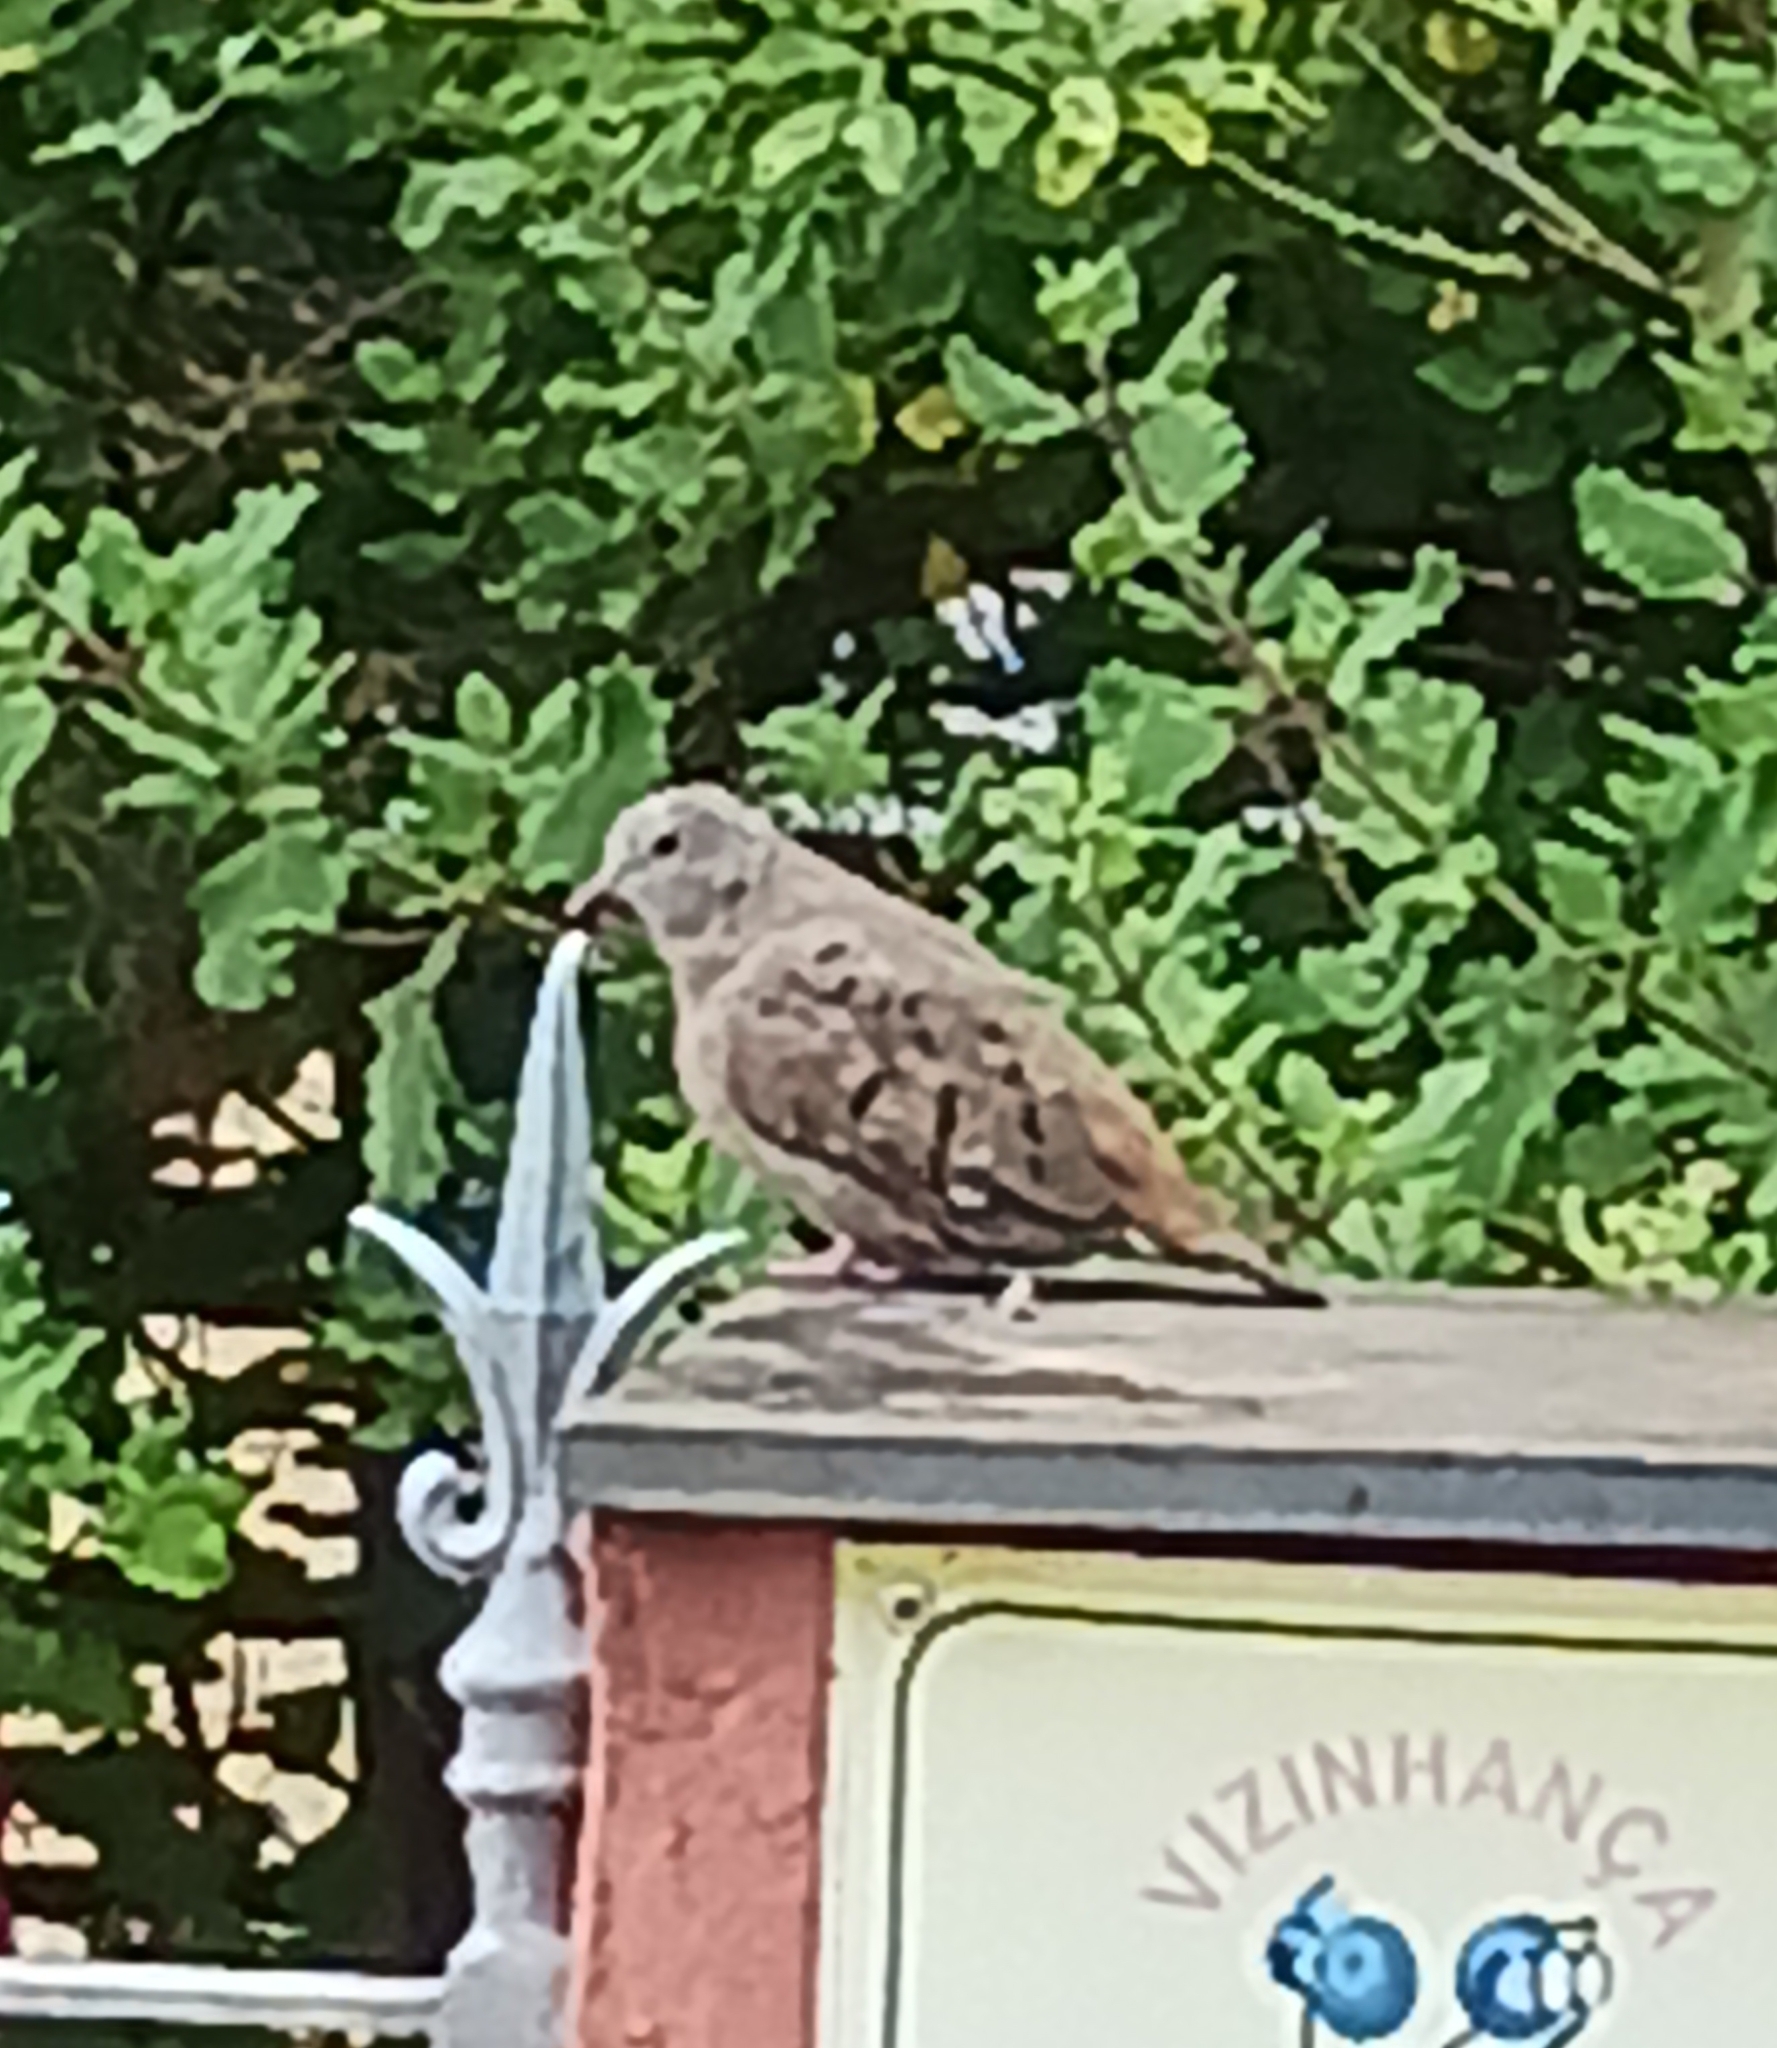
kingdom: Animalia
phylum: Chordata
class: Aves
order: Columbiformes
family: Columbidae
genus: Columbina
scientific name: Columbina talpacoti
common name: Ruddy ground dove
